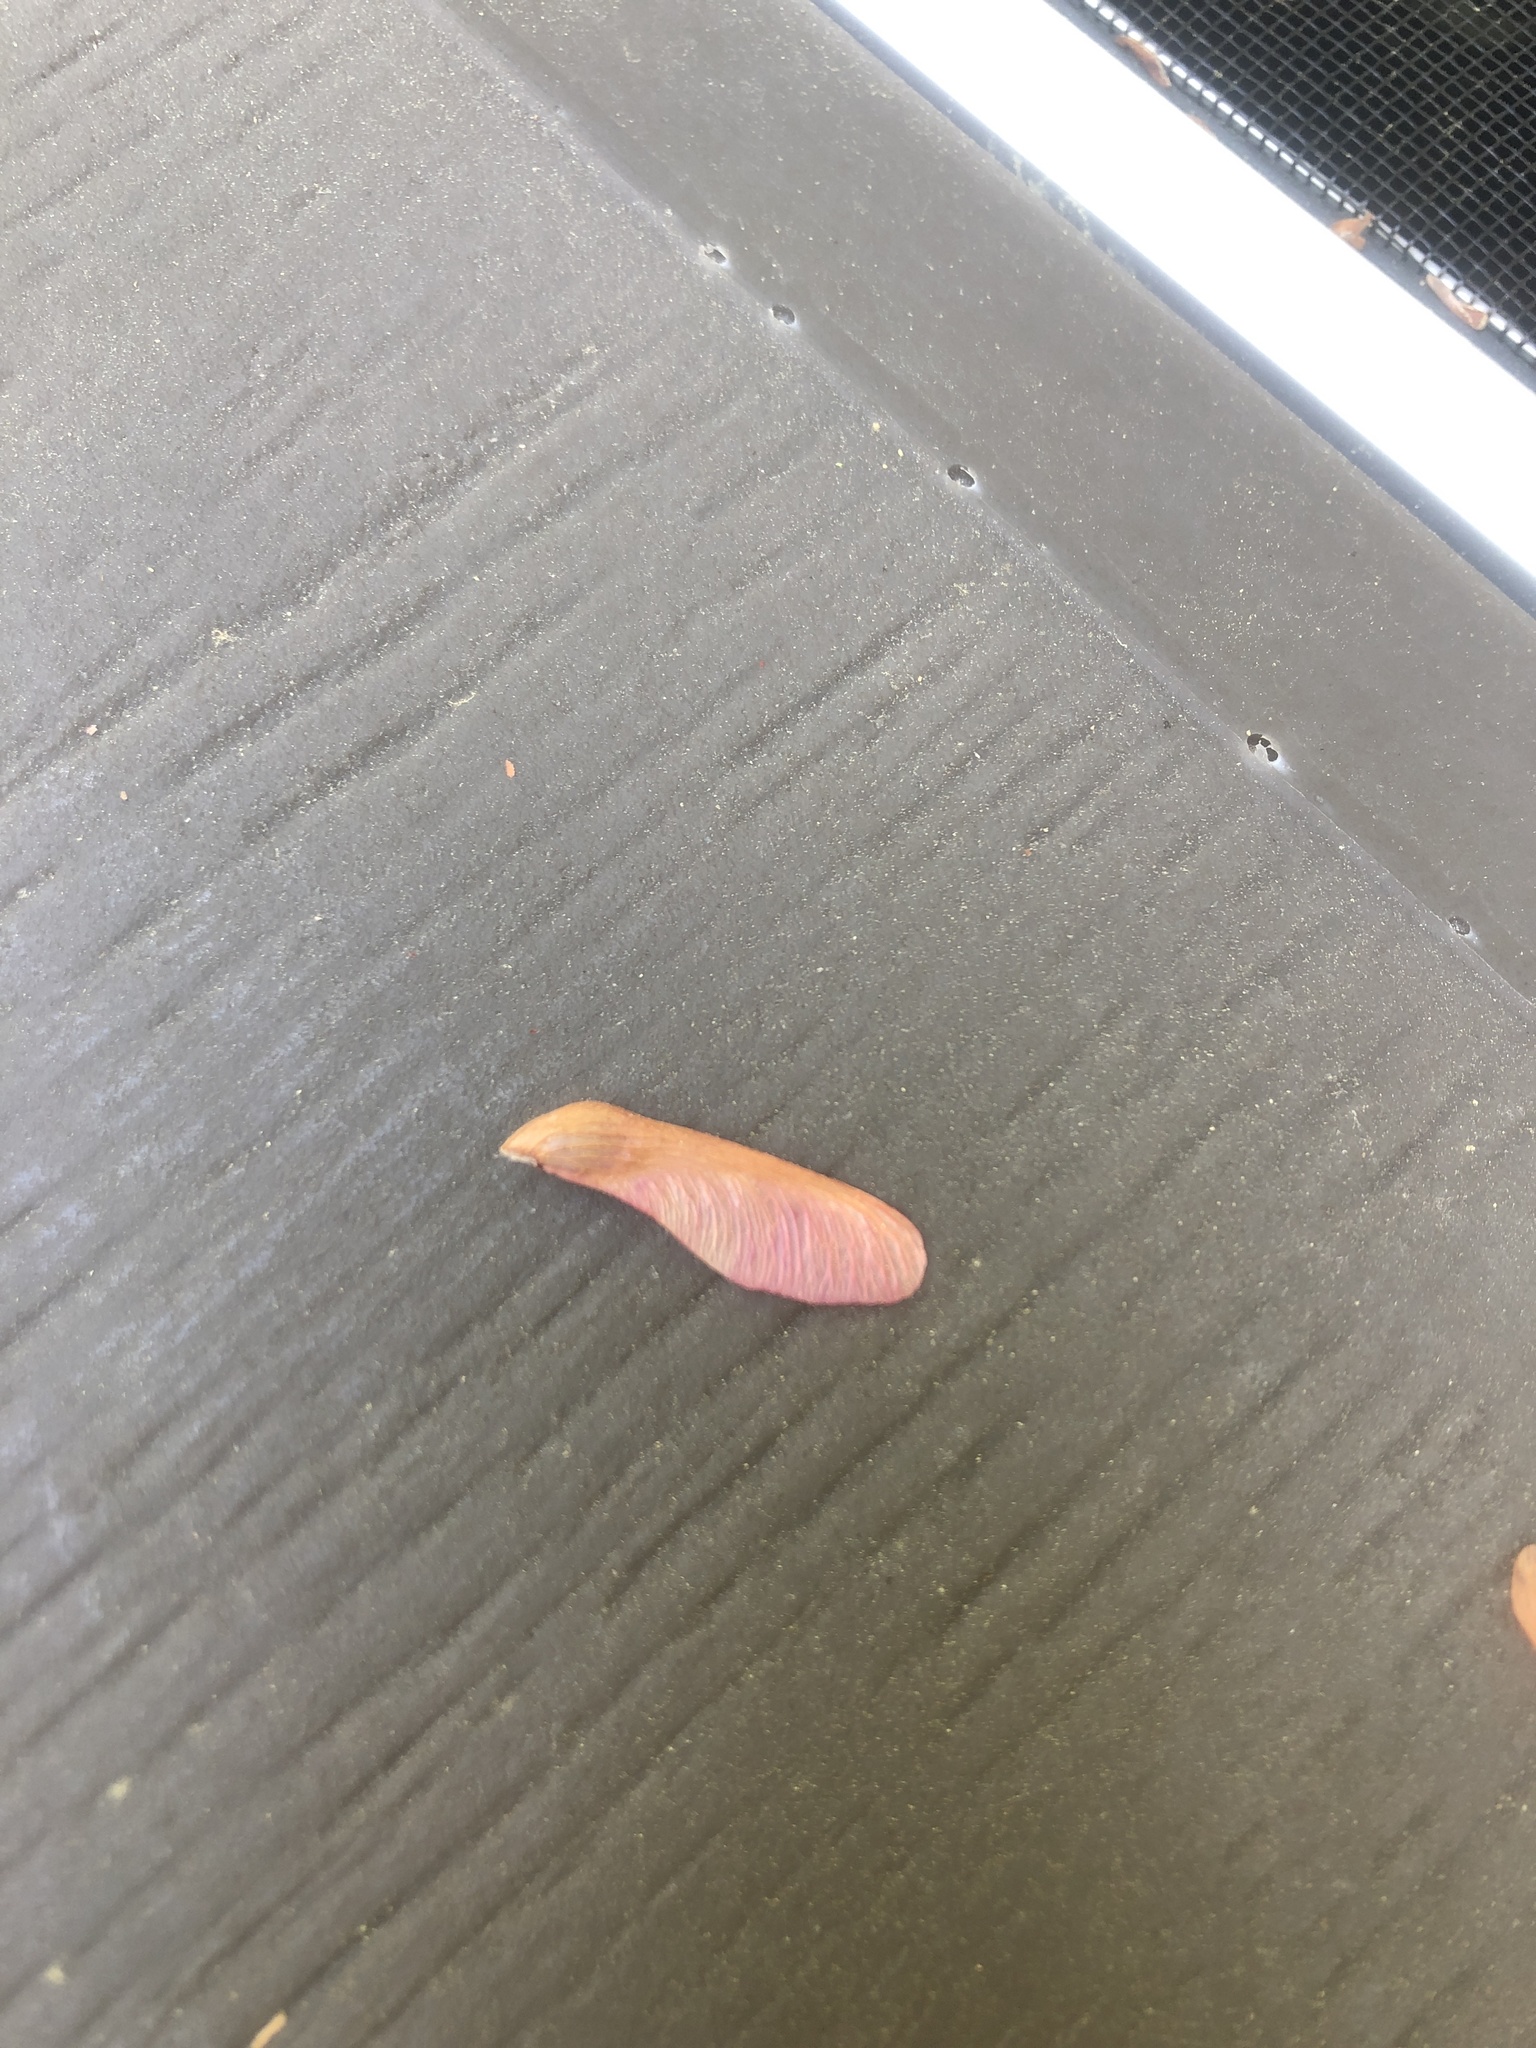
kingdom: Plantae
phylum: Tracheophyta
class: Magnoliopsida
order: Sapindales
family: Sapindaceae
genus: Acer
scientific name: Acer rubrum
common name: Red maple
